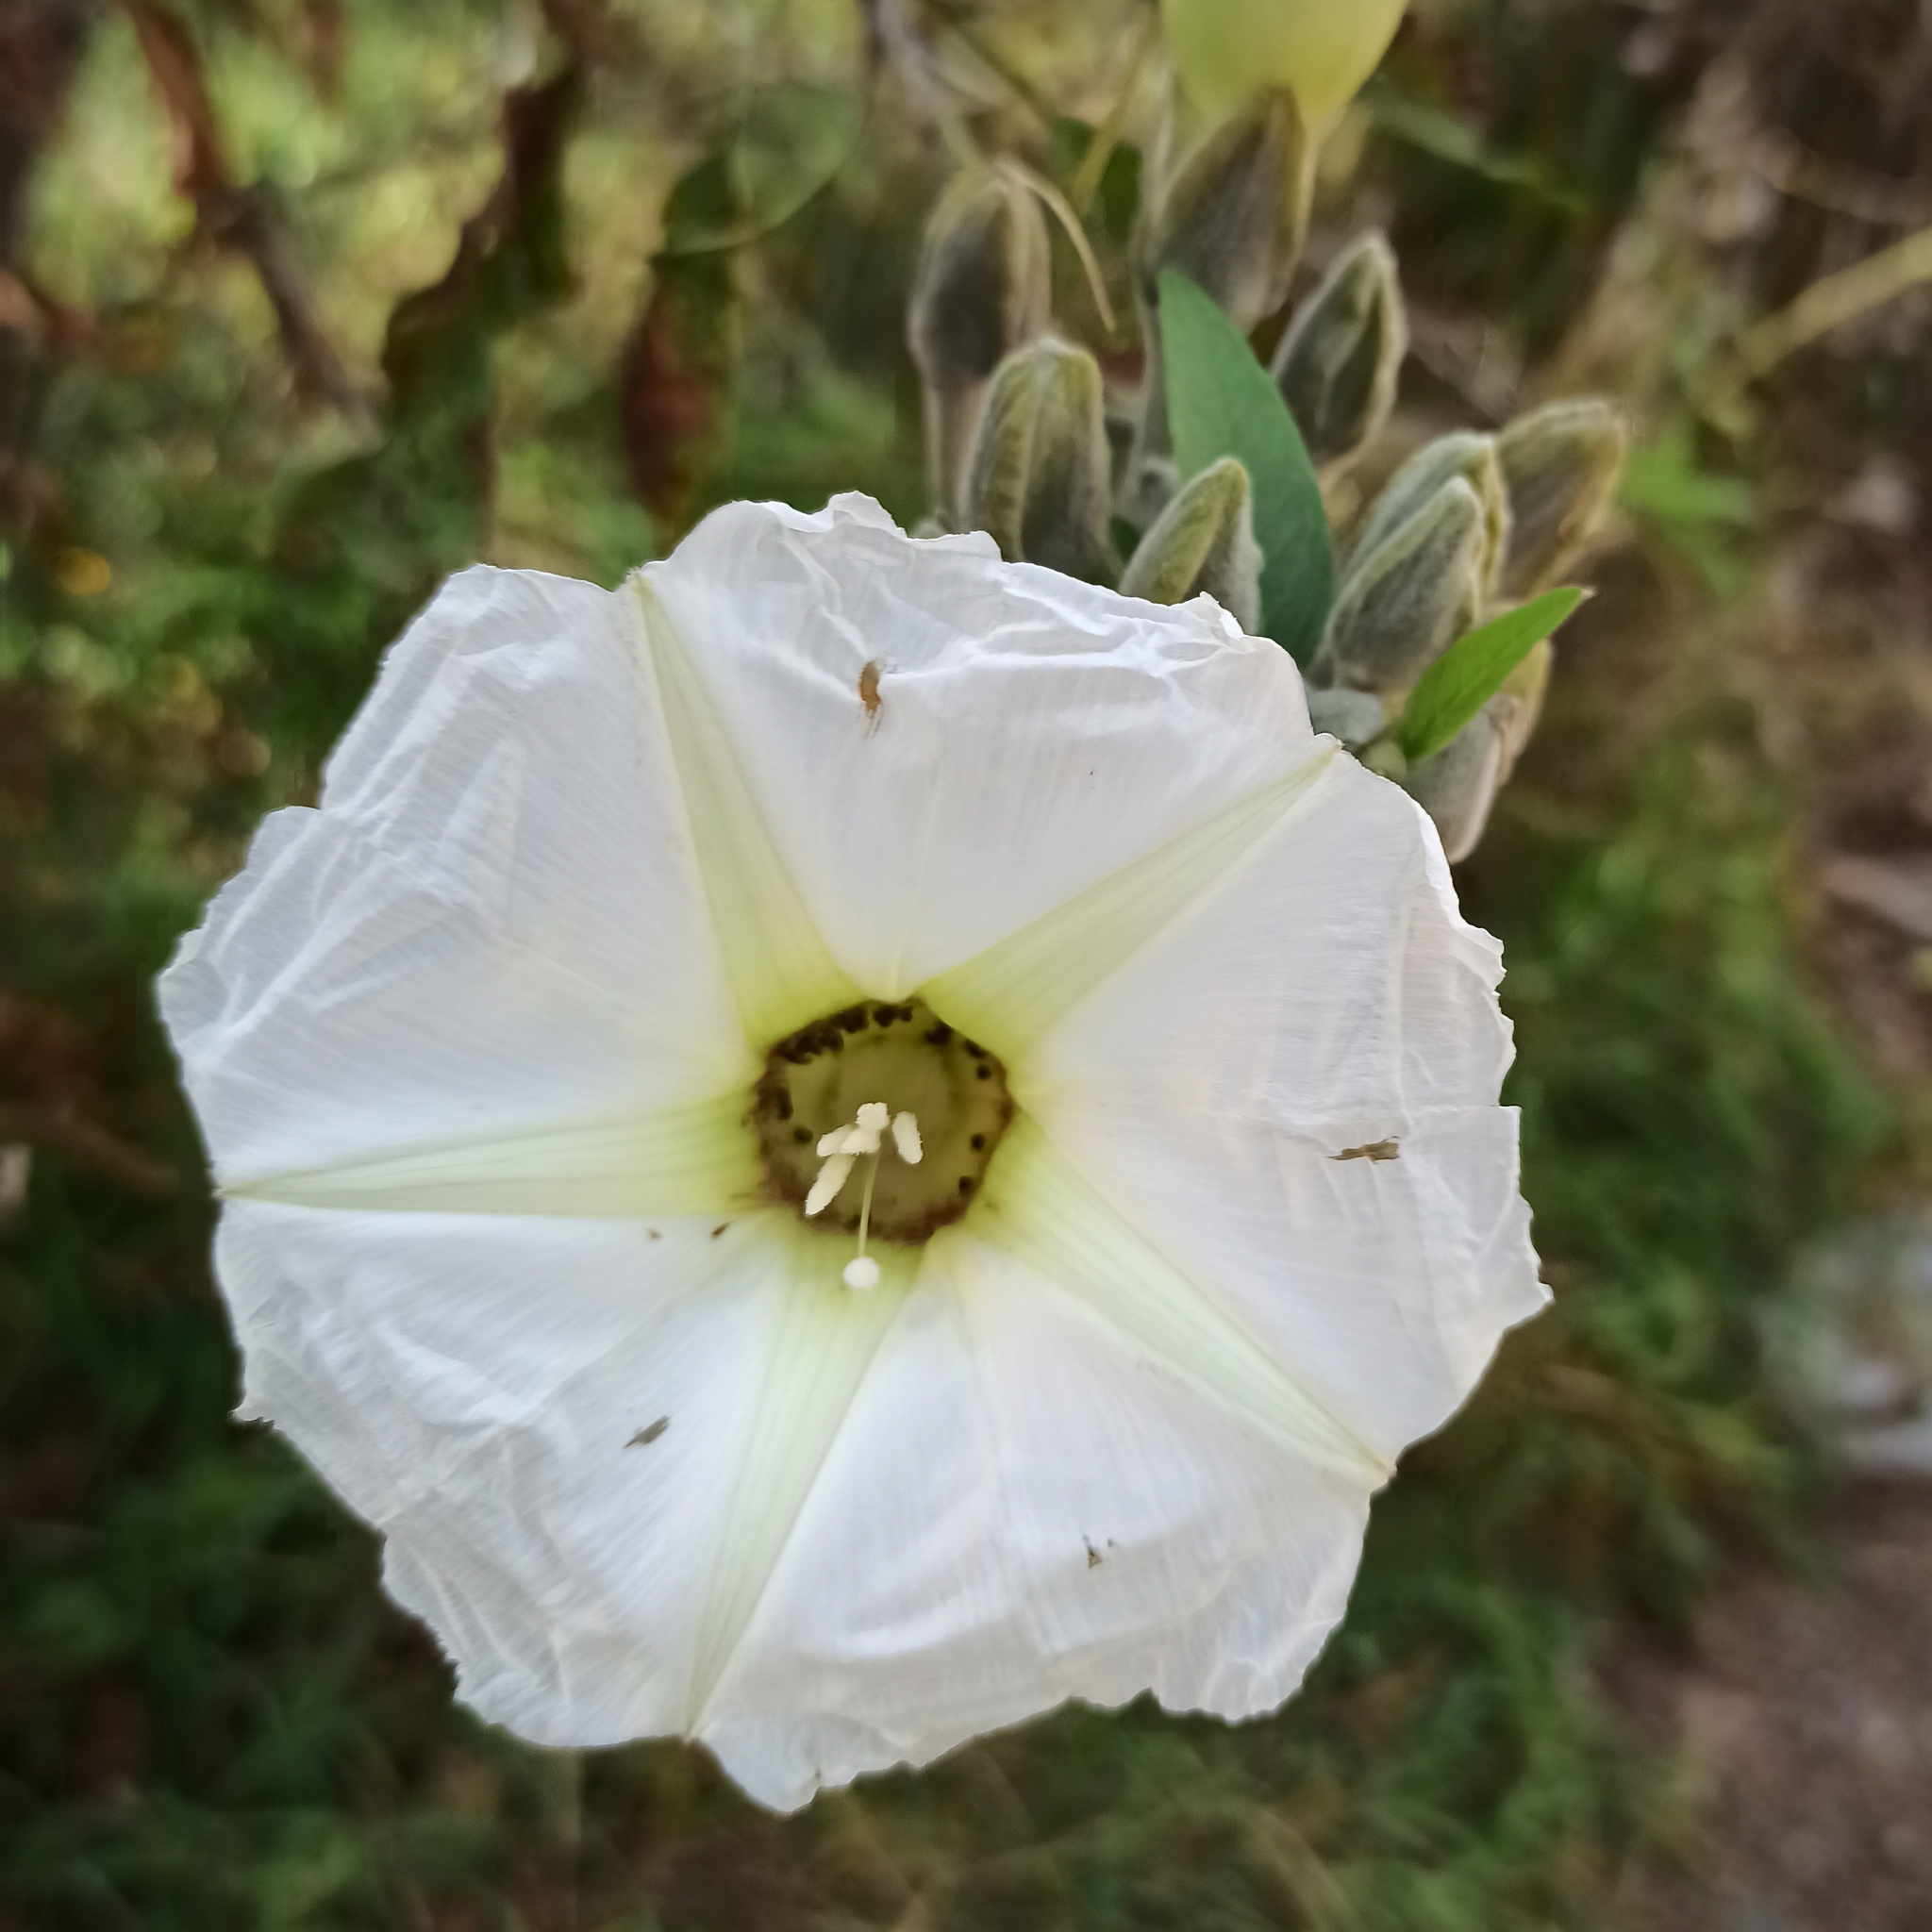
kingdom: Plantae
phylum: Tracheophyta
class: Magnoliopsida
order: Solanales
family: Convolvulaceae
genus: Ipomoea
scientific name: Ipomoea murucoides
